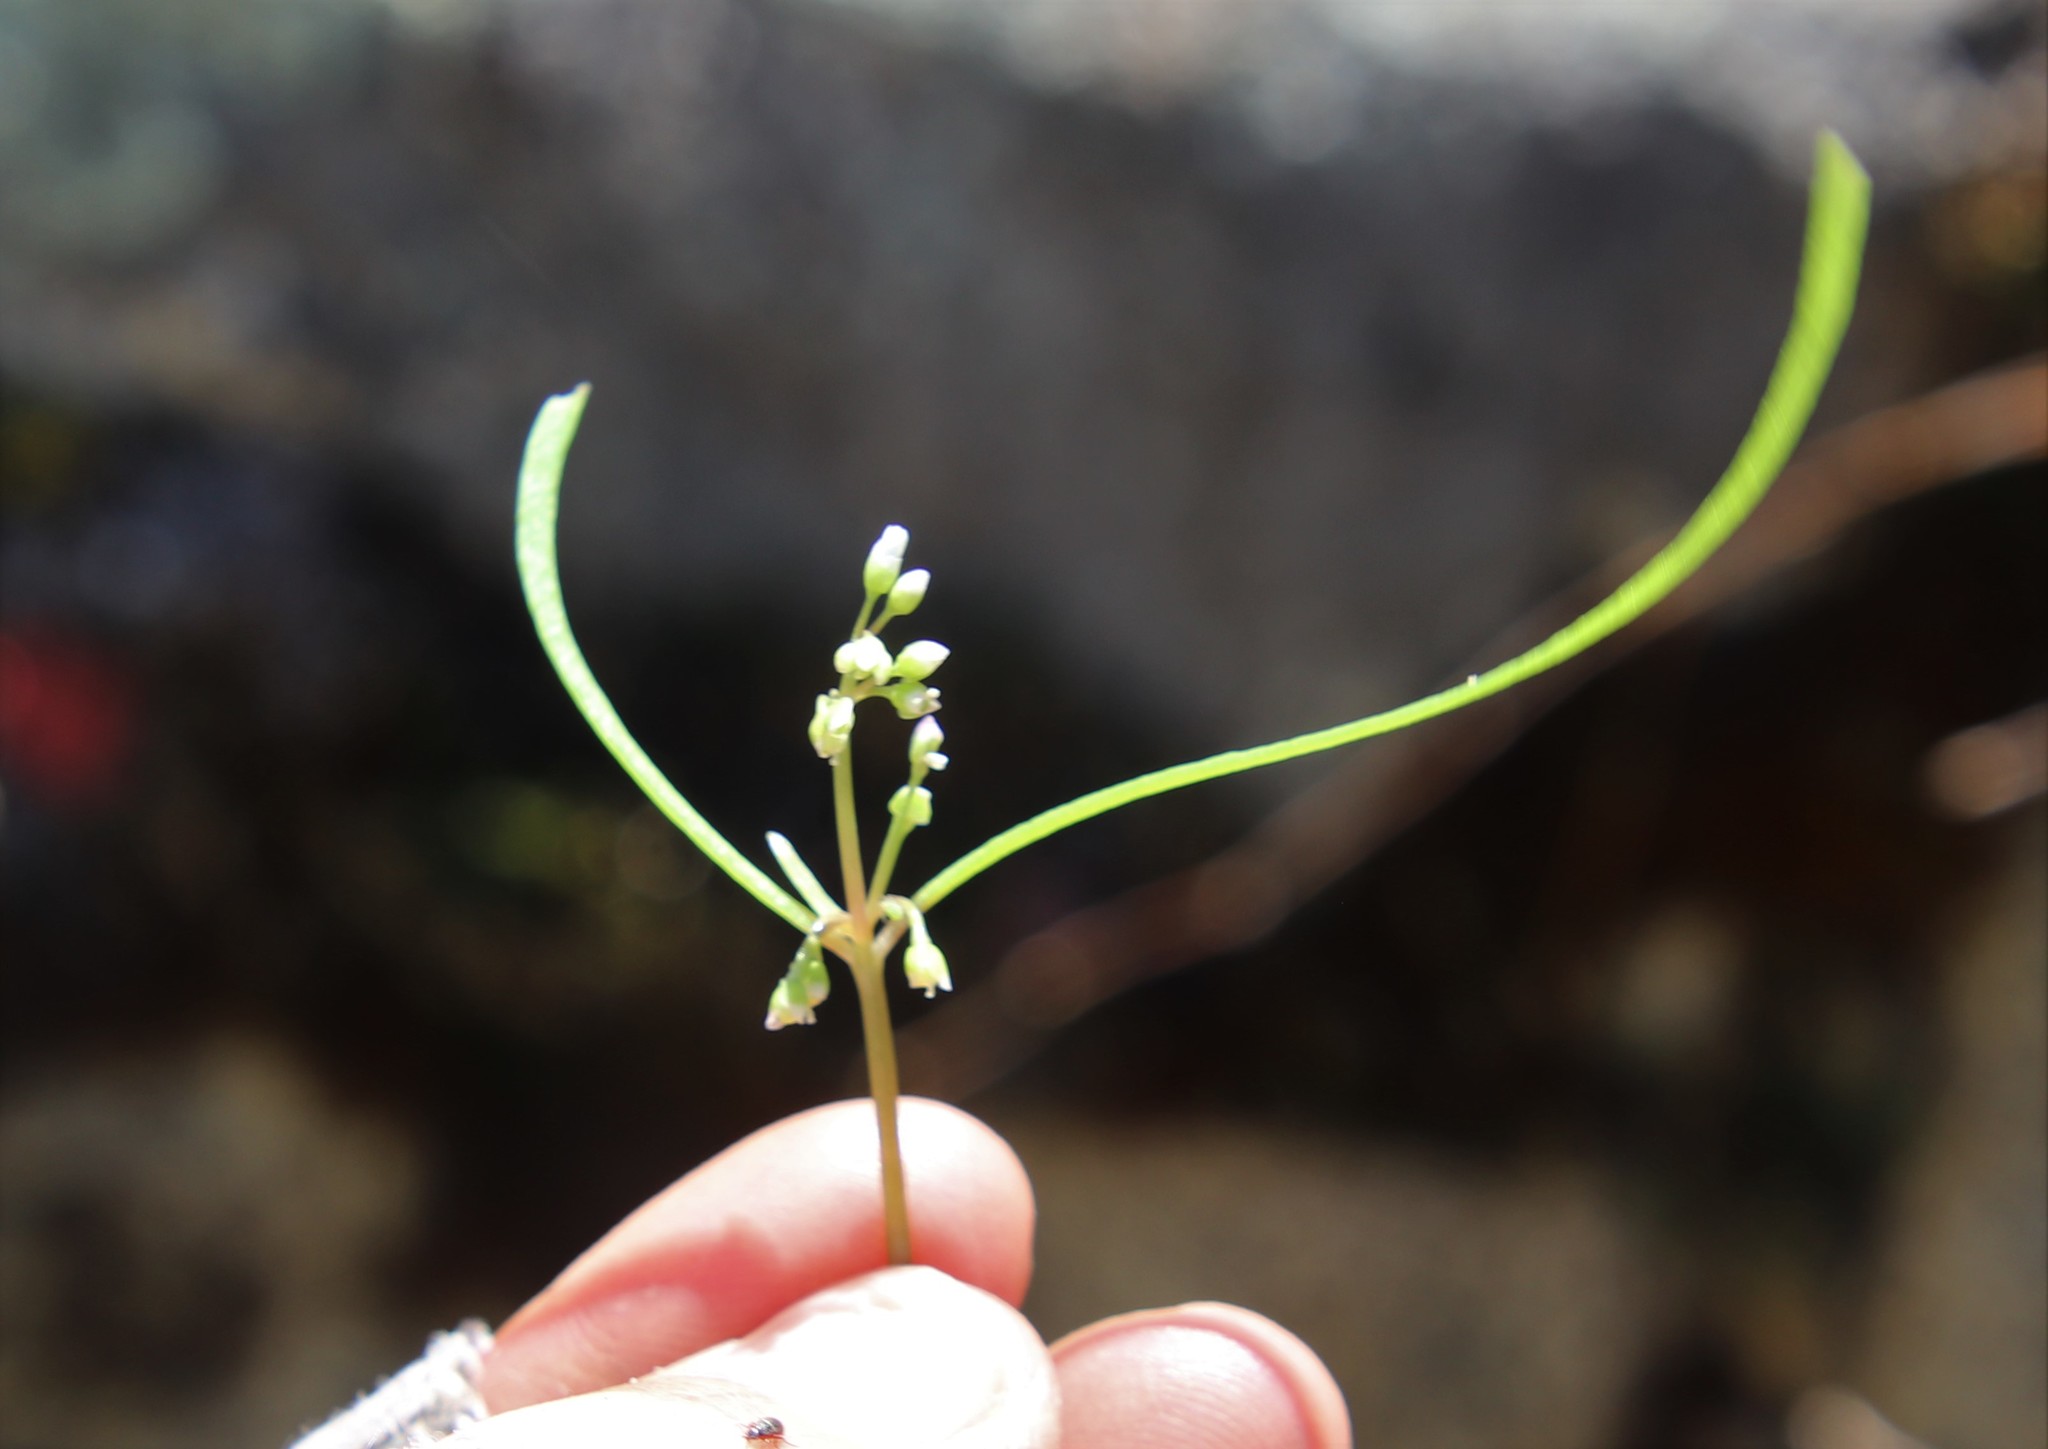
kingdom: Plantae
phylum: Tracheophyta
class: Magnoliopsida
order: Caryophyllales
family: Montiaceae
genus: Claytonia
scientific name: Claytonia parviflora
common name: Indian-lettuce
